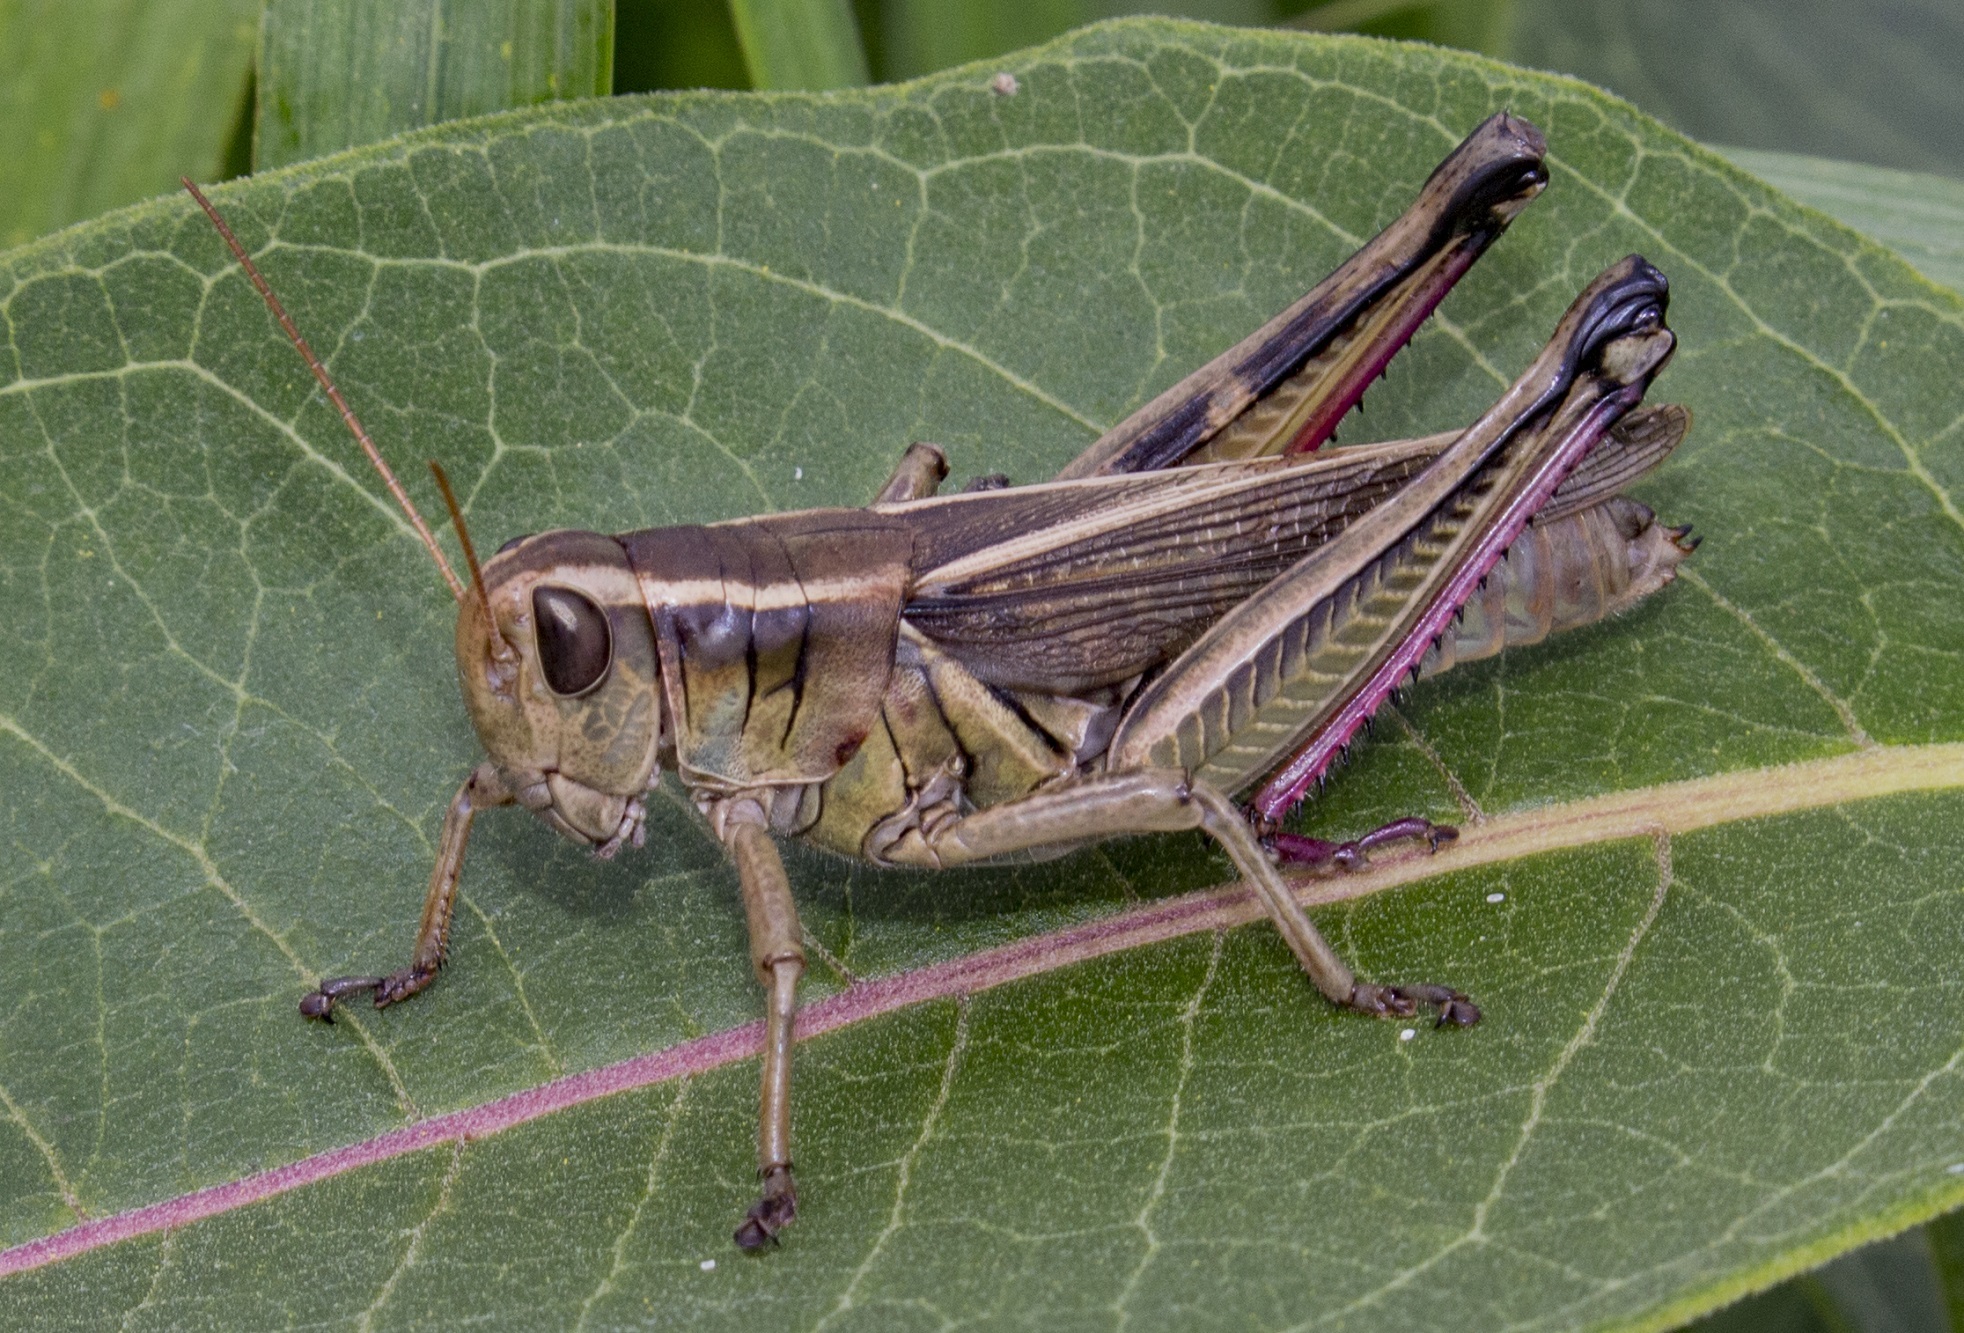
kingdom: Animalia
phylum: Arthropoda
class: Insecta
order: Orthoptera
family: Acrididae
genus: Melanoplus
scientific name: Melanoplus bivittatus
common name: Two-striped grasshopper
